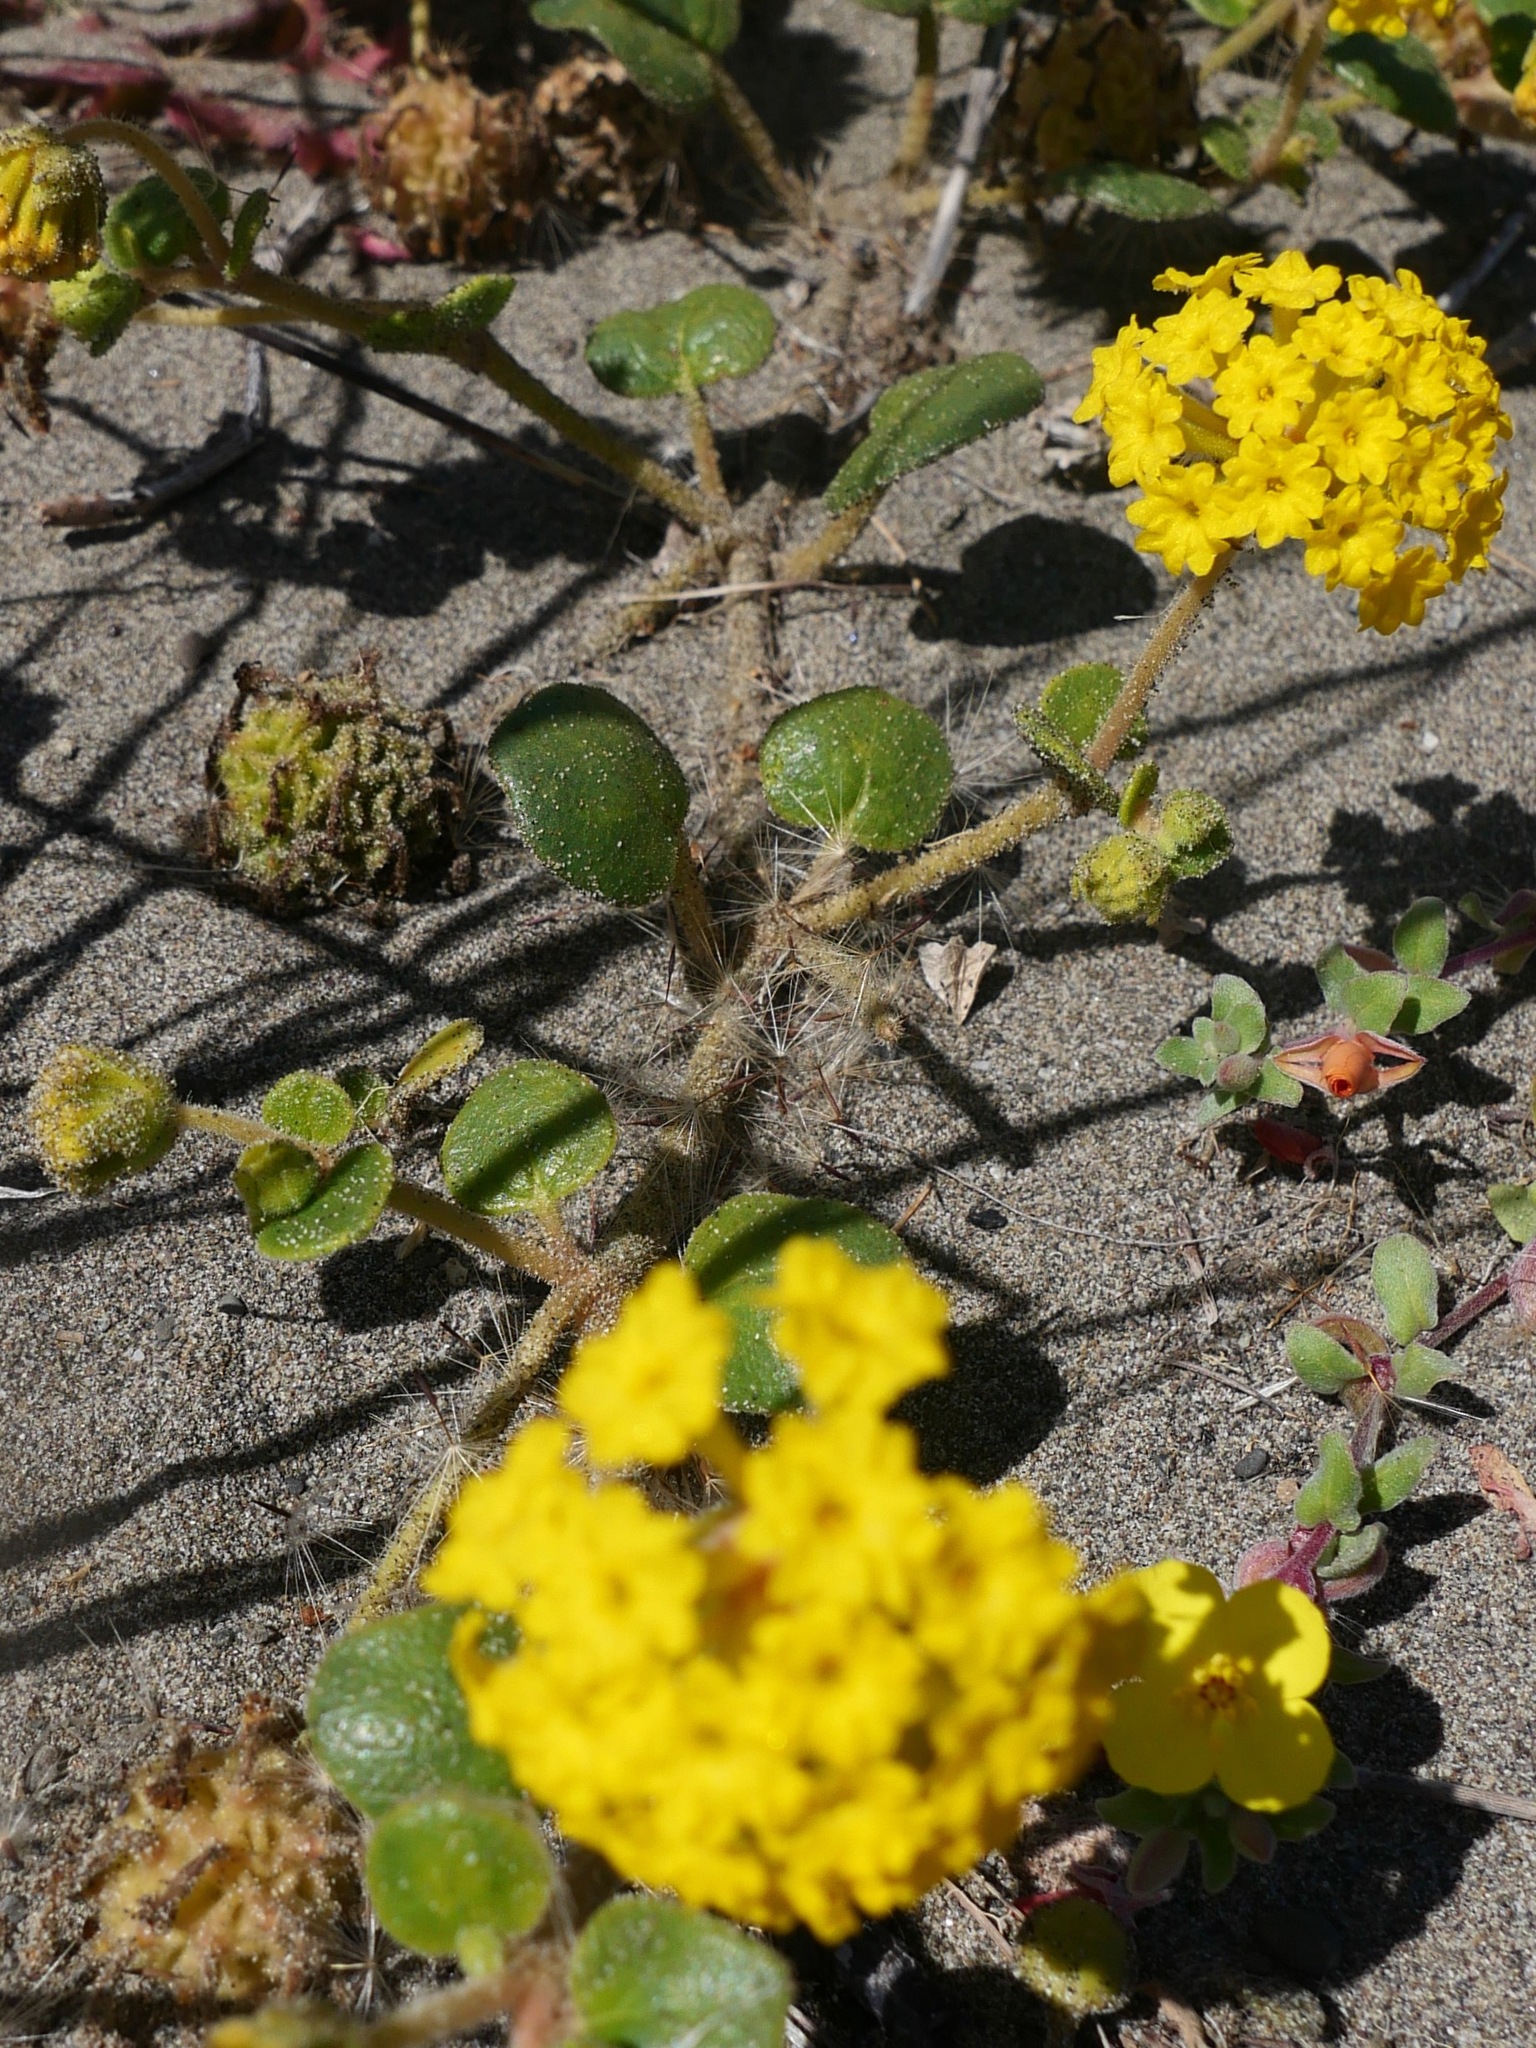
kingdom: Plantae
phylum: Tracheophyta
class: Magnoliopsida
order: Caryophyllales
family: Nyctaginaceae
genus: Abronia
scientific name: Abronia latifolia
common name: Yellow sand-verbena
